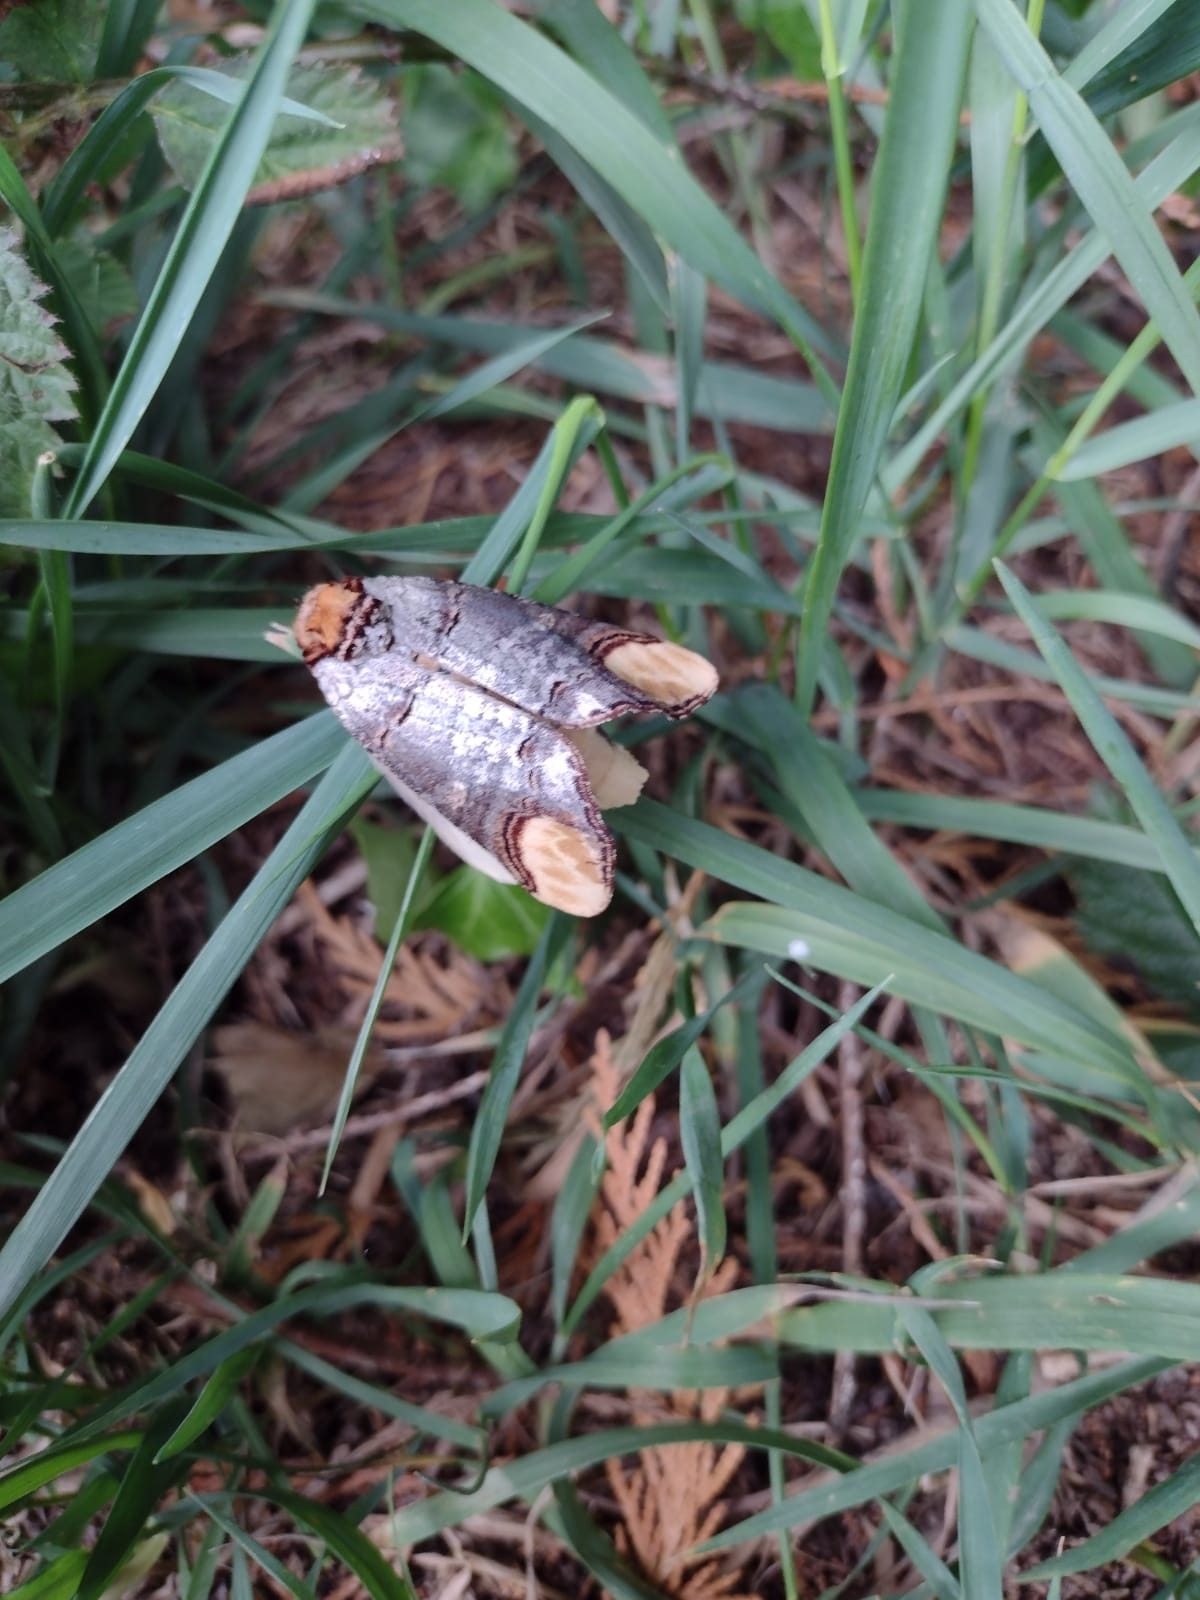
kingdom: Animalia
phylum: Arthropoda
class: Insecta
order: Lepidoptera
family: Notodontidae
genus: Phalera
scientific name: Phalera bucephala
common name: Buff-tip
